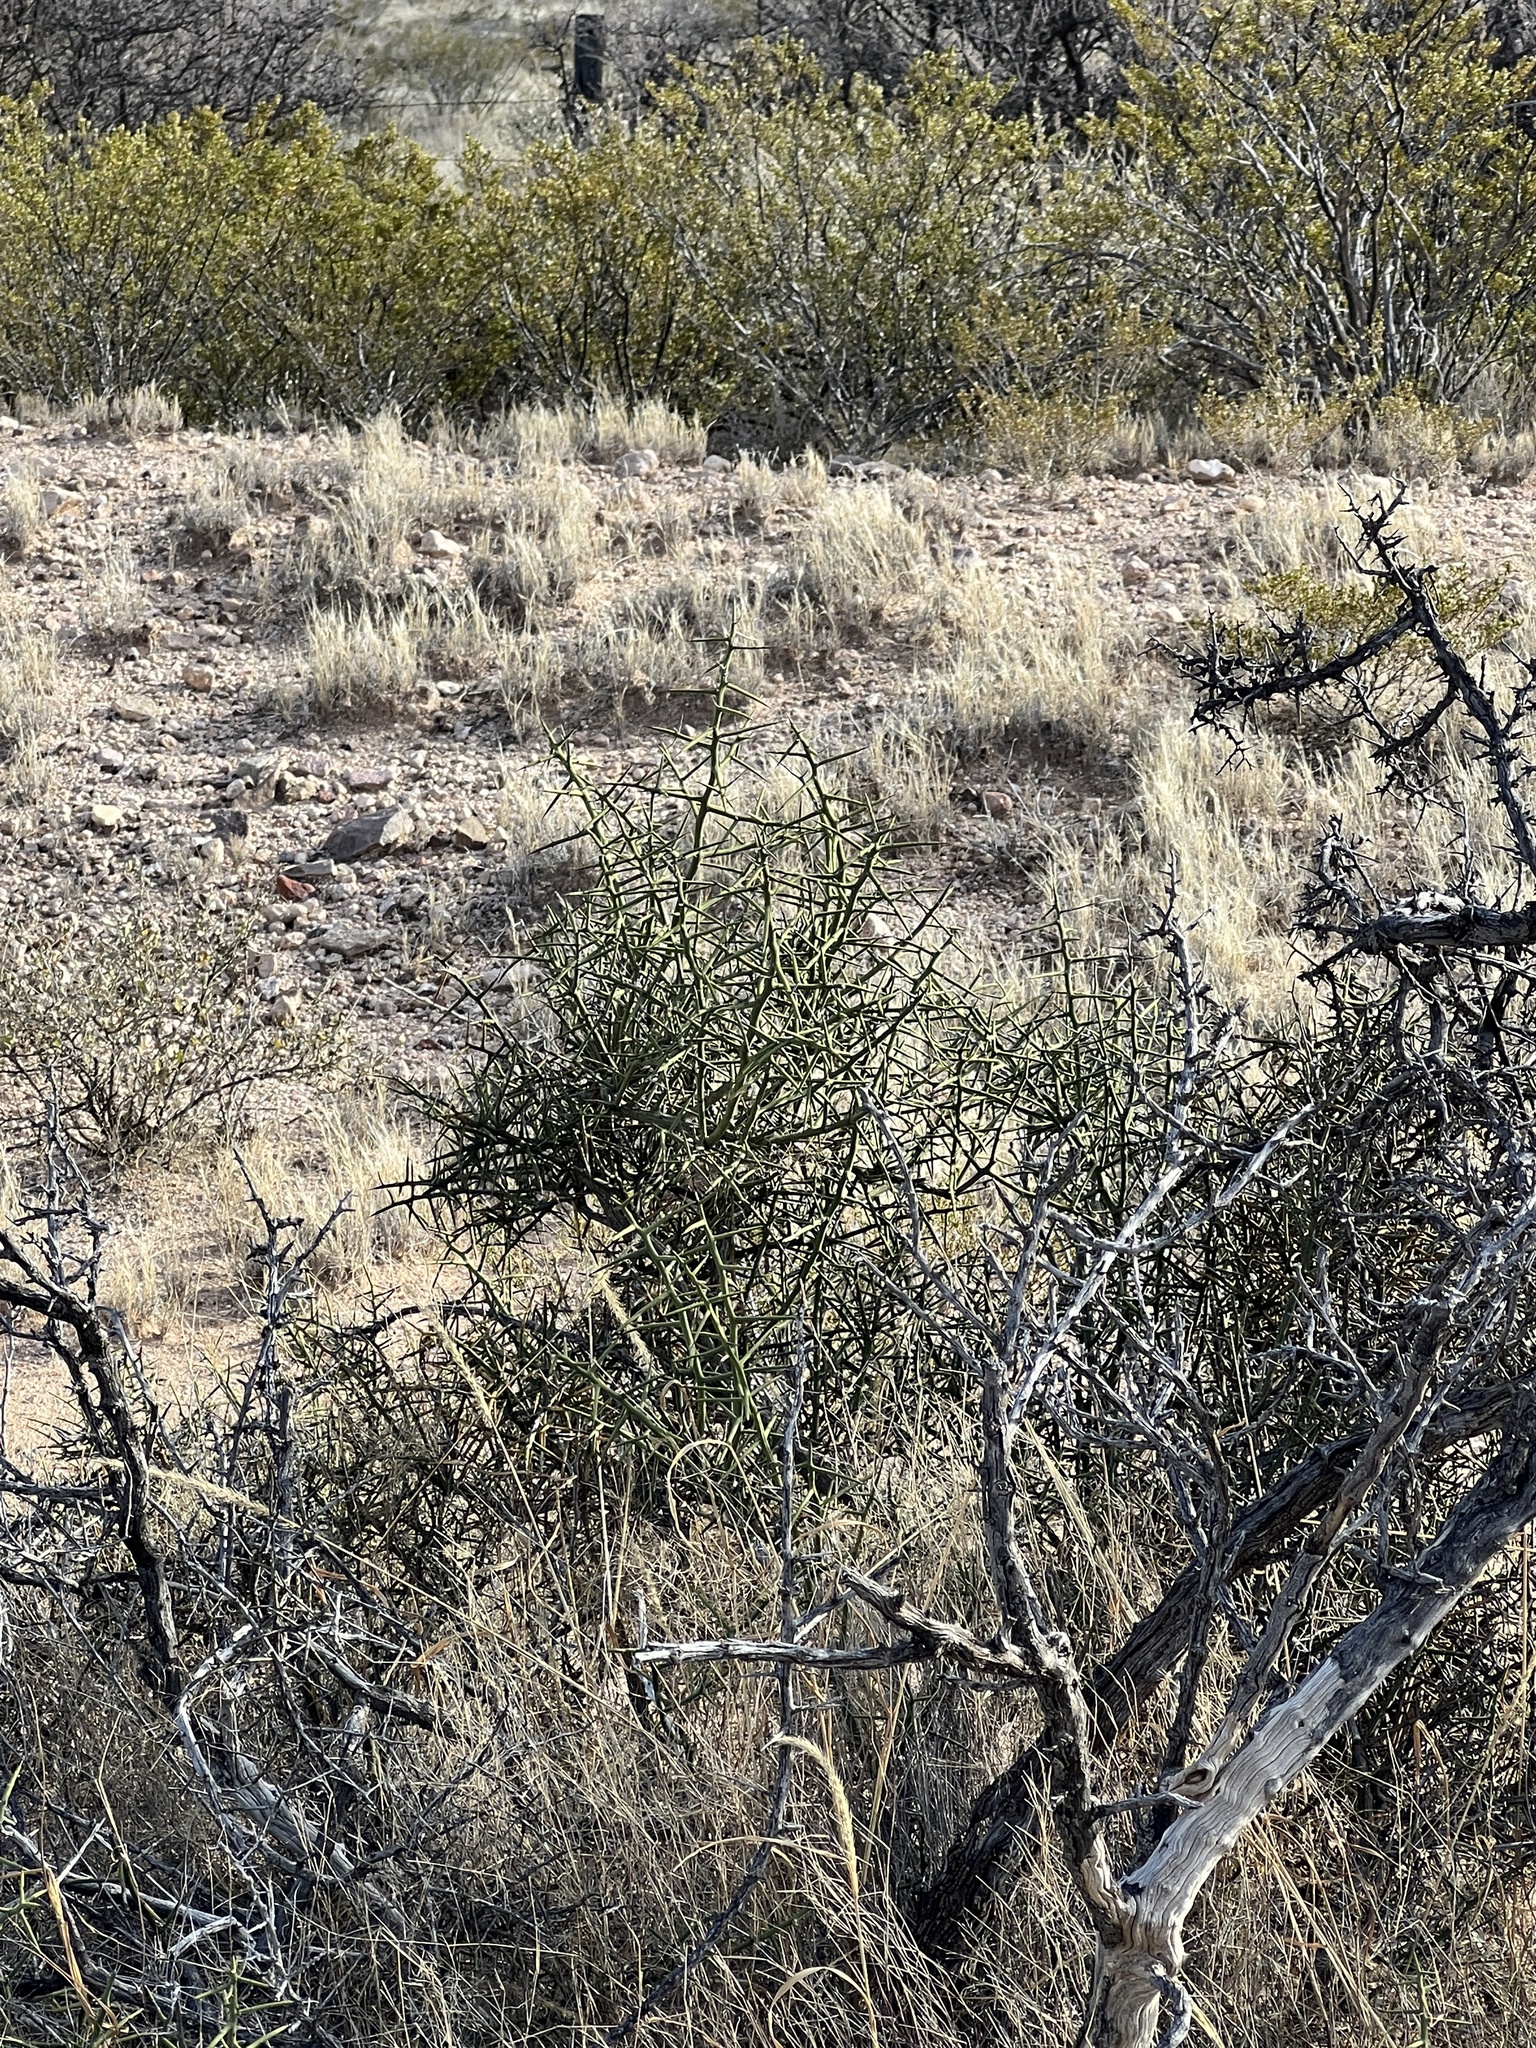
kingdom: Plantae
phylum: Tracheophyta
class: Magnoliopsida
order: Brassicales
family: Koeberliniaceae
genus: Koeberlinia
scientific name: Koeberlinia spinosa
